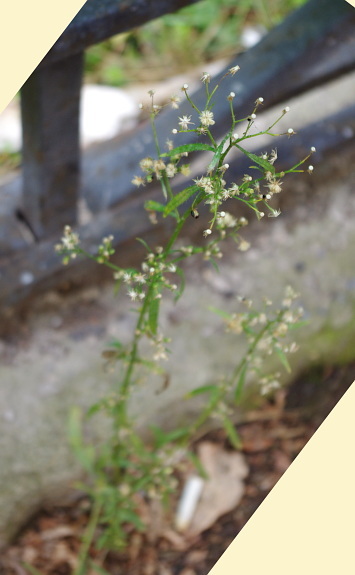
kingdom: Plantae
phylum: Tracheophyta
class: Magnoliopsida
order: Asterales
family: Asteraceae
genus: Erigeron
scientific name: Erigeron canadensis
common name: Canadian fleabane
